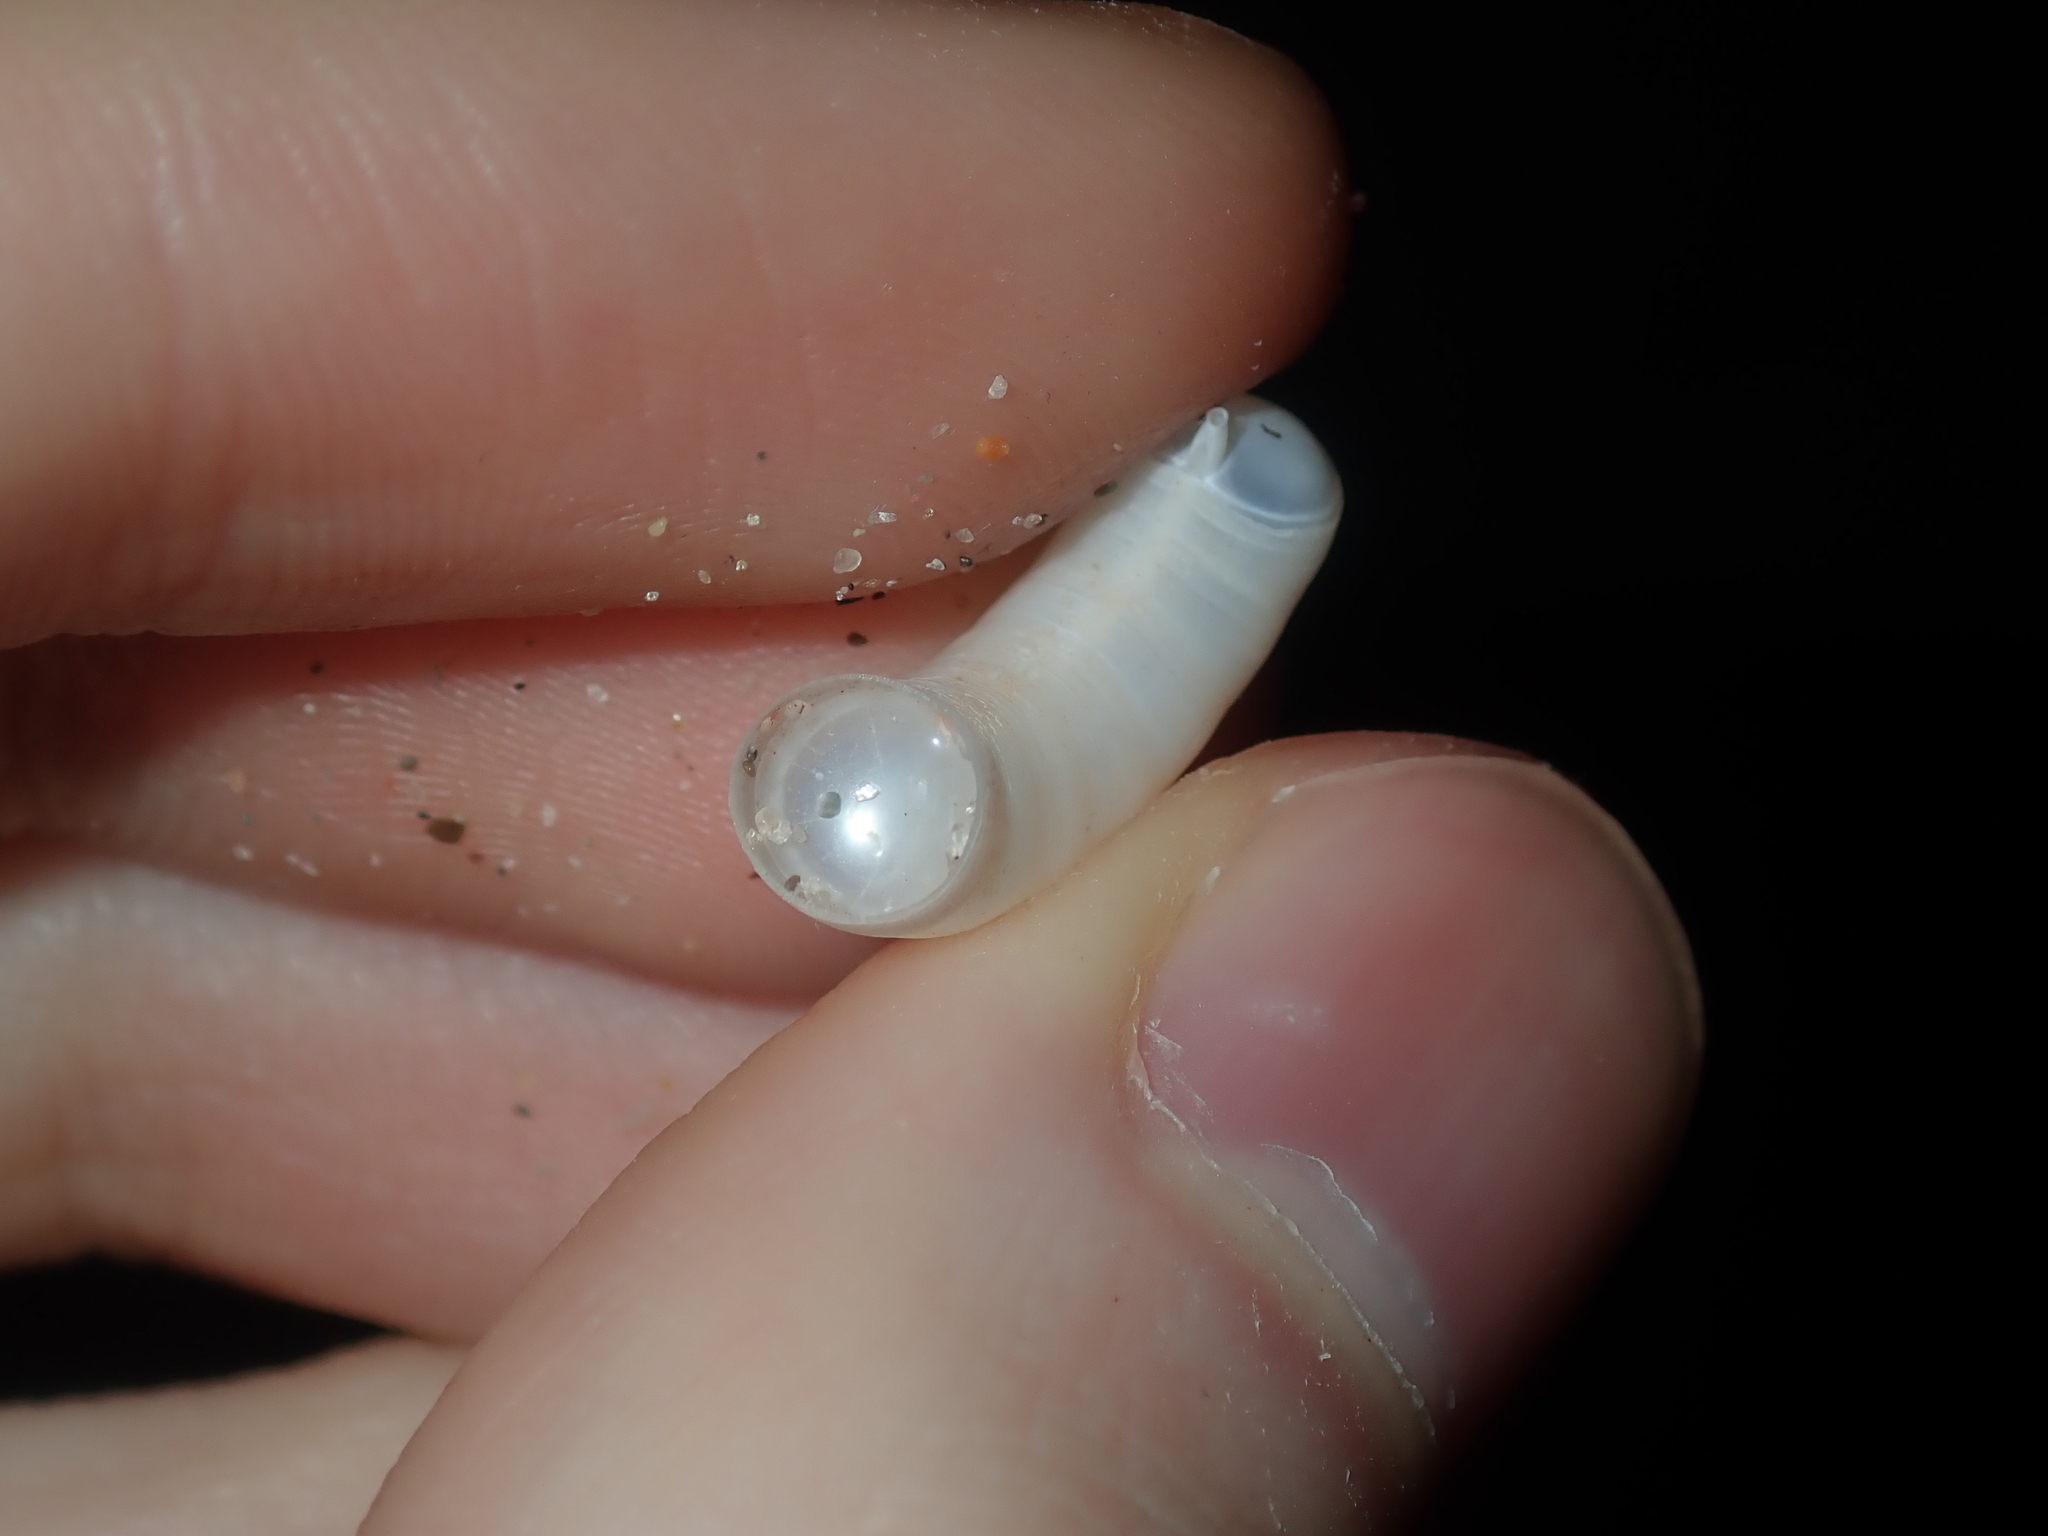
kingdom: Animalia
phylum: Mollusca
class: Cephalopoda
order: Spirulida
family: Spirulidae
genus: Spirula
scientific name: Spirula spirula
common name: Ram's horn squid
